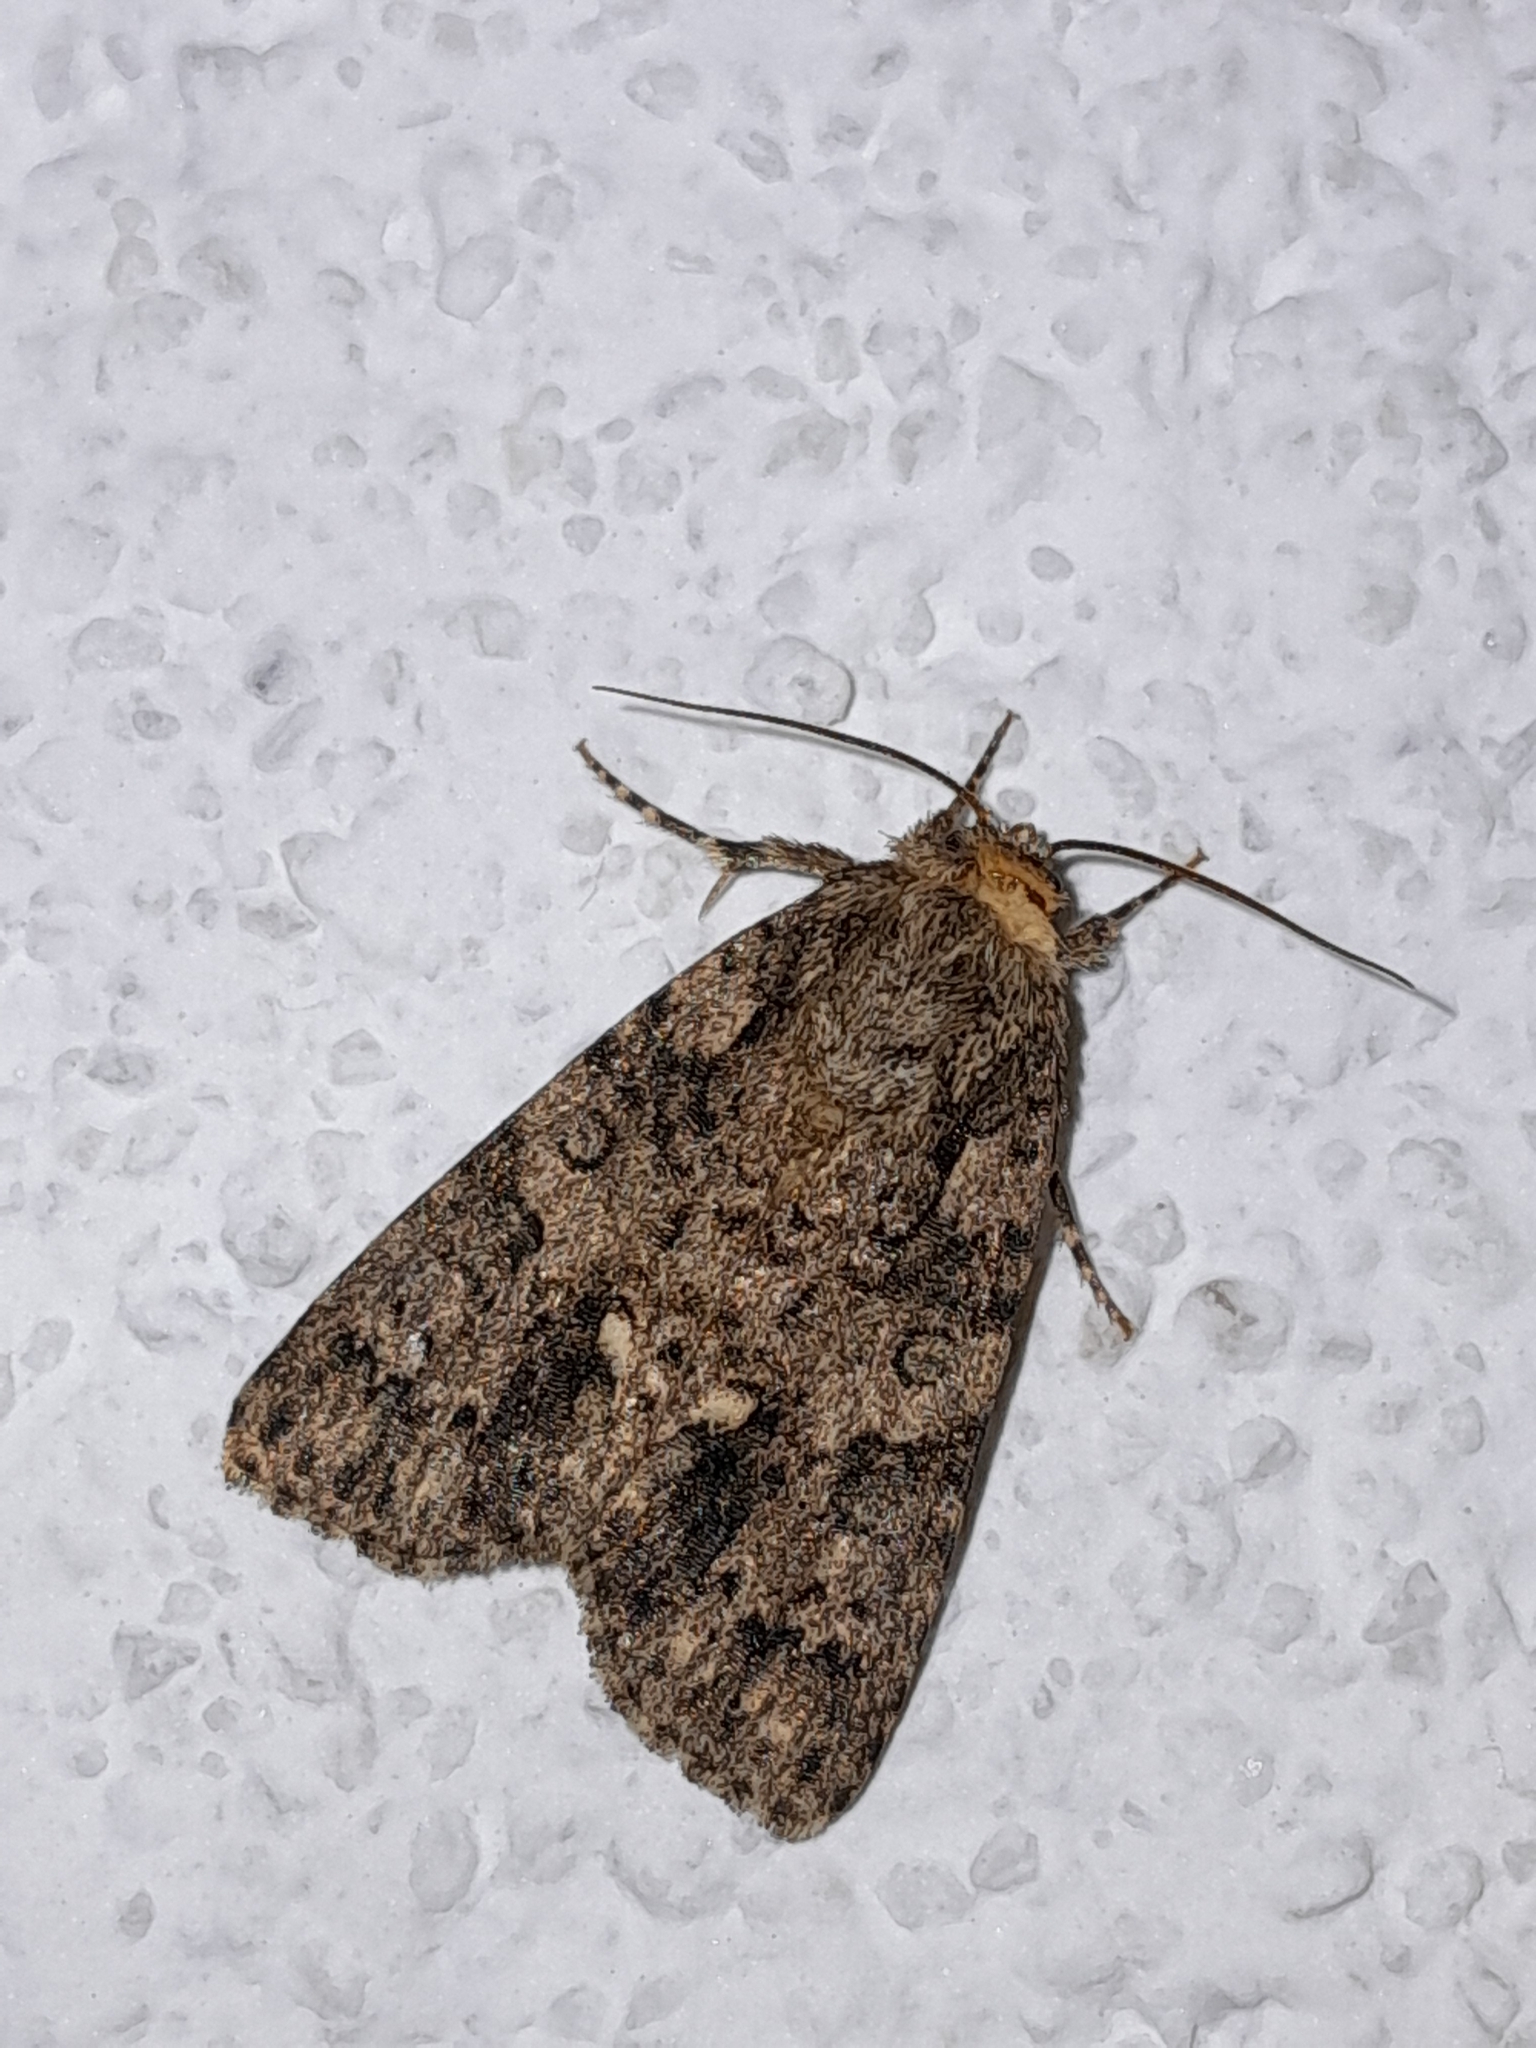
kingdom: Animalia
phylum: Arthropoda
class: Insecta
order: Lepidoptera
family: Noctuidae
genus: Acronicta
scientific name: Acronicta rumicis
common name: Knot grass
